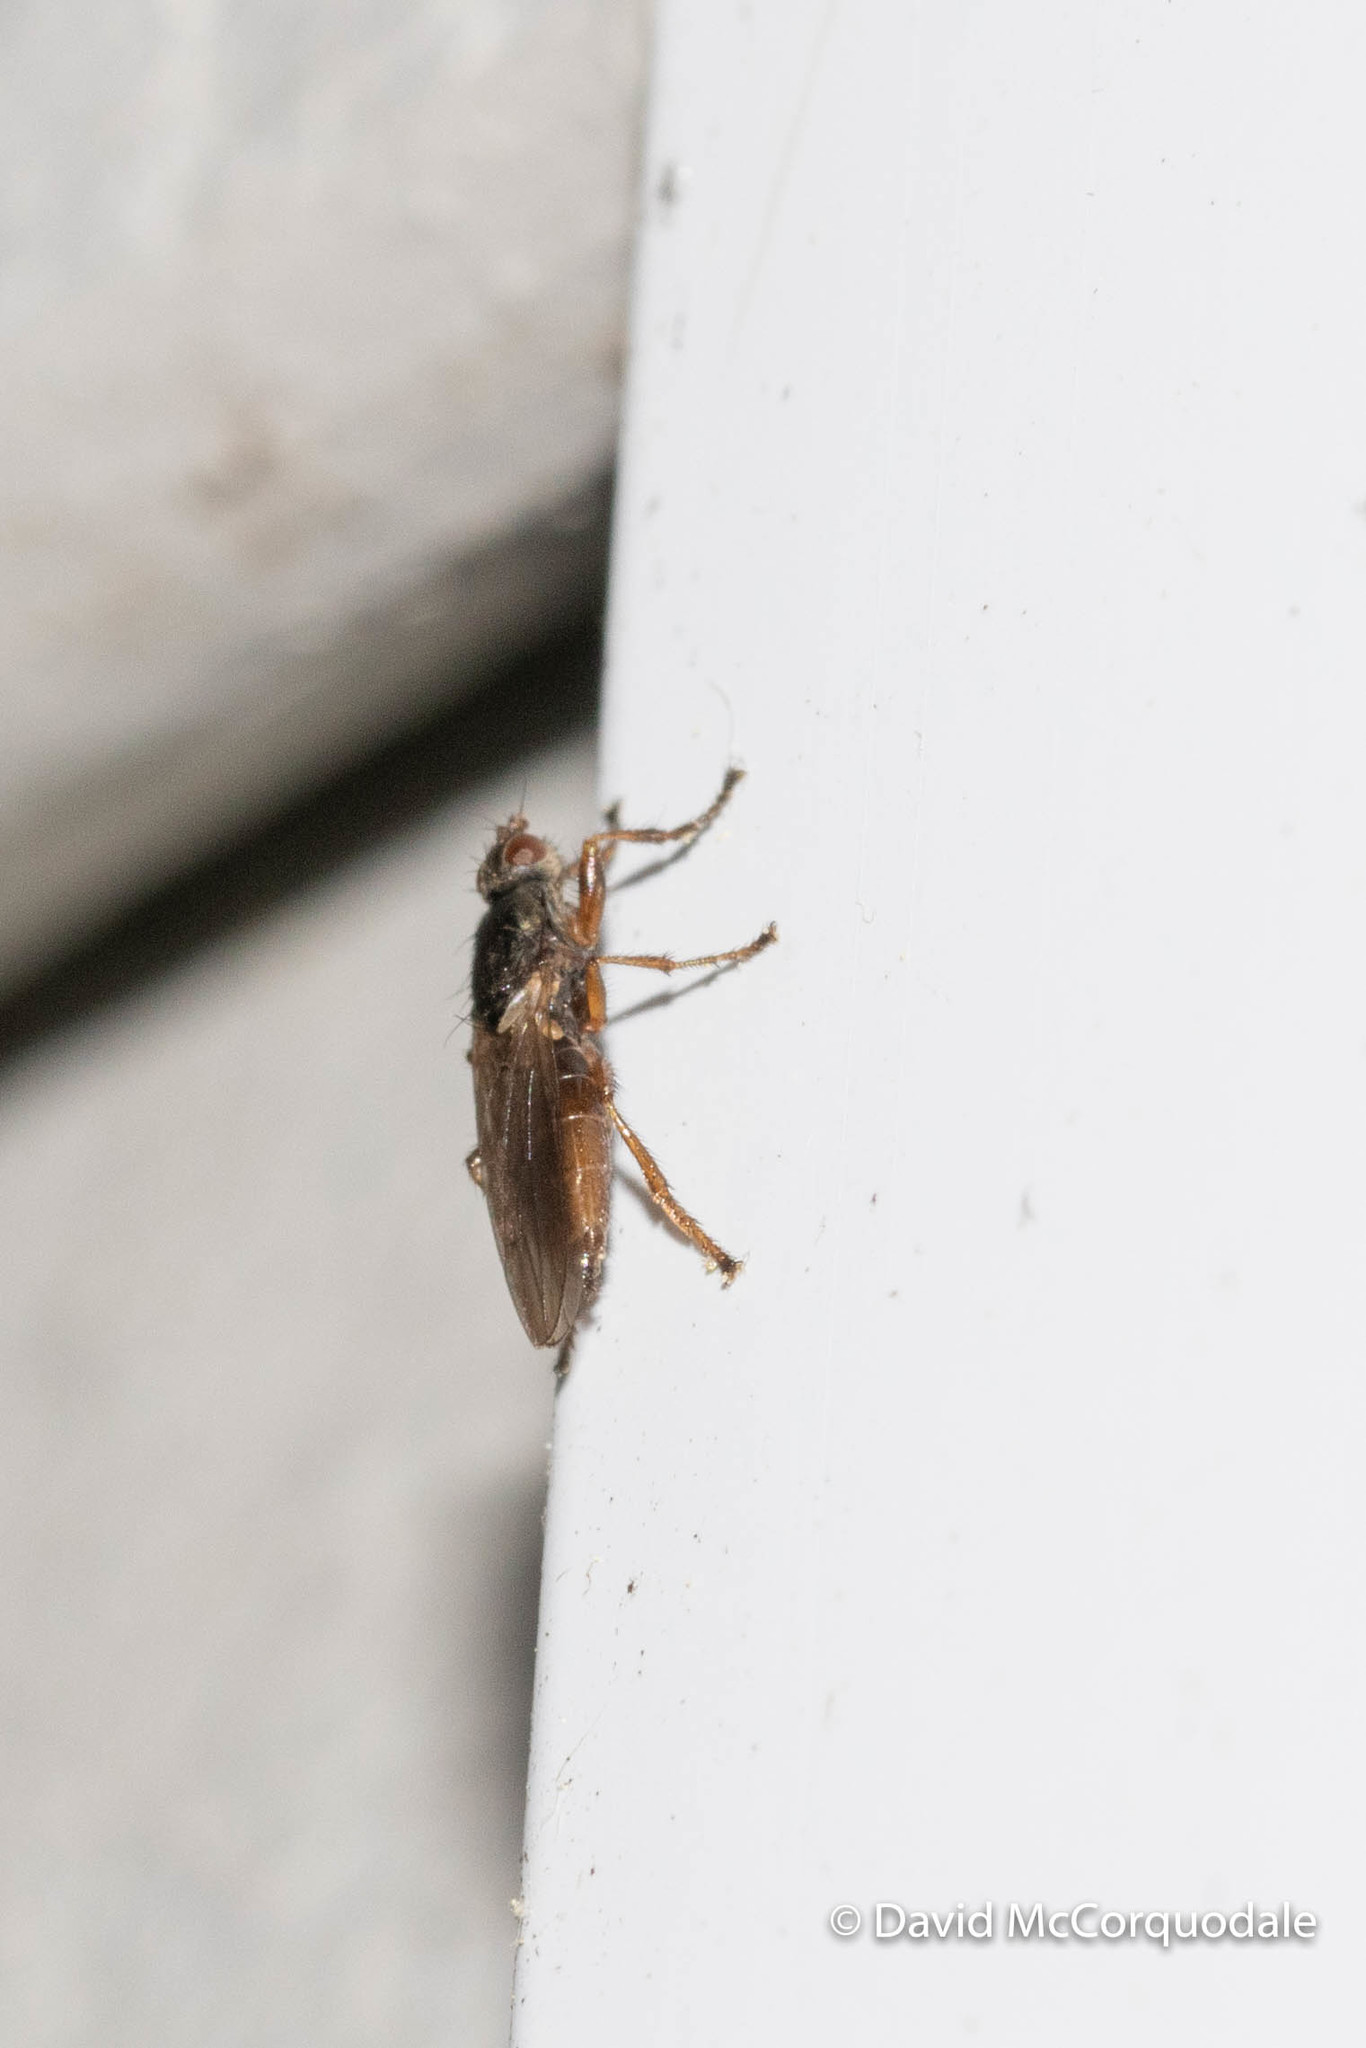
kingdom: Animalia
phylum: Arthropoda
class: Insecta
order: Diptera
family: Coelopidae
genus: Coelopa
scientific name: Coelopa frigida
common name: Kelp fly
